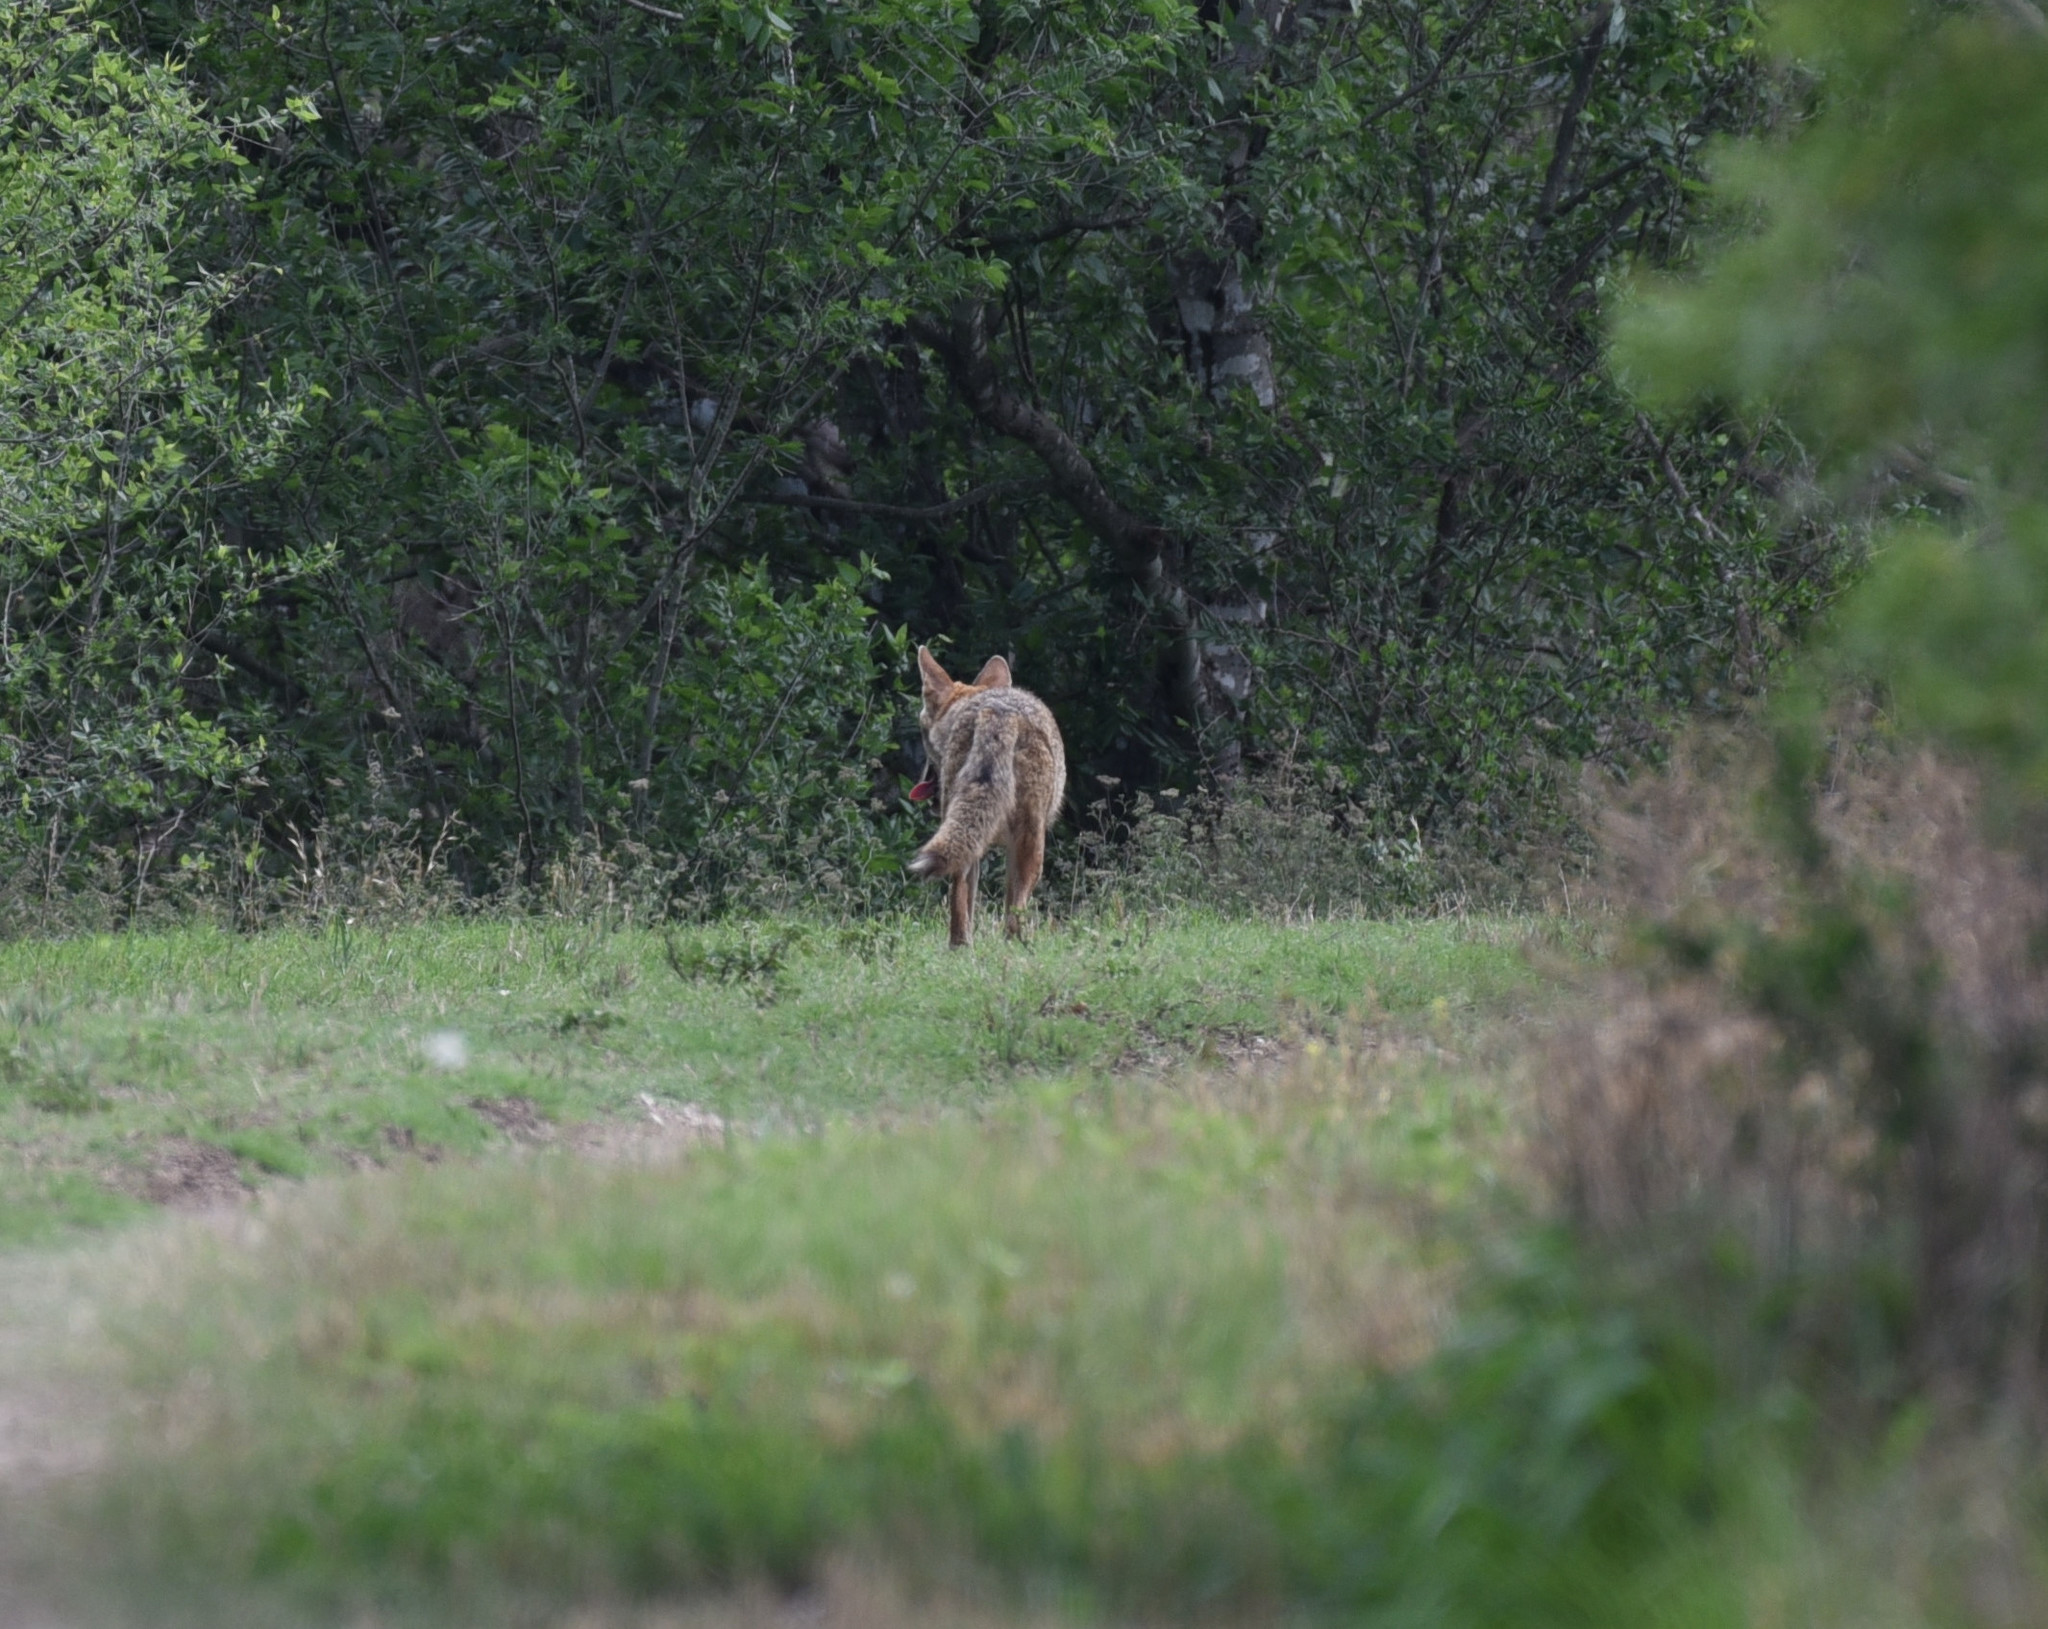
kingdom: Animalia
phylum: Chordata
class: Mammalia
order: Carnivora
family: Canidae
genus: Canis
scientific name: Canis latrans
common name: Coyote
